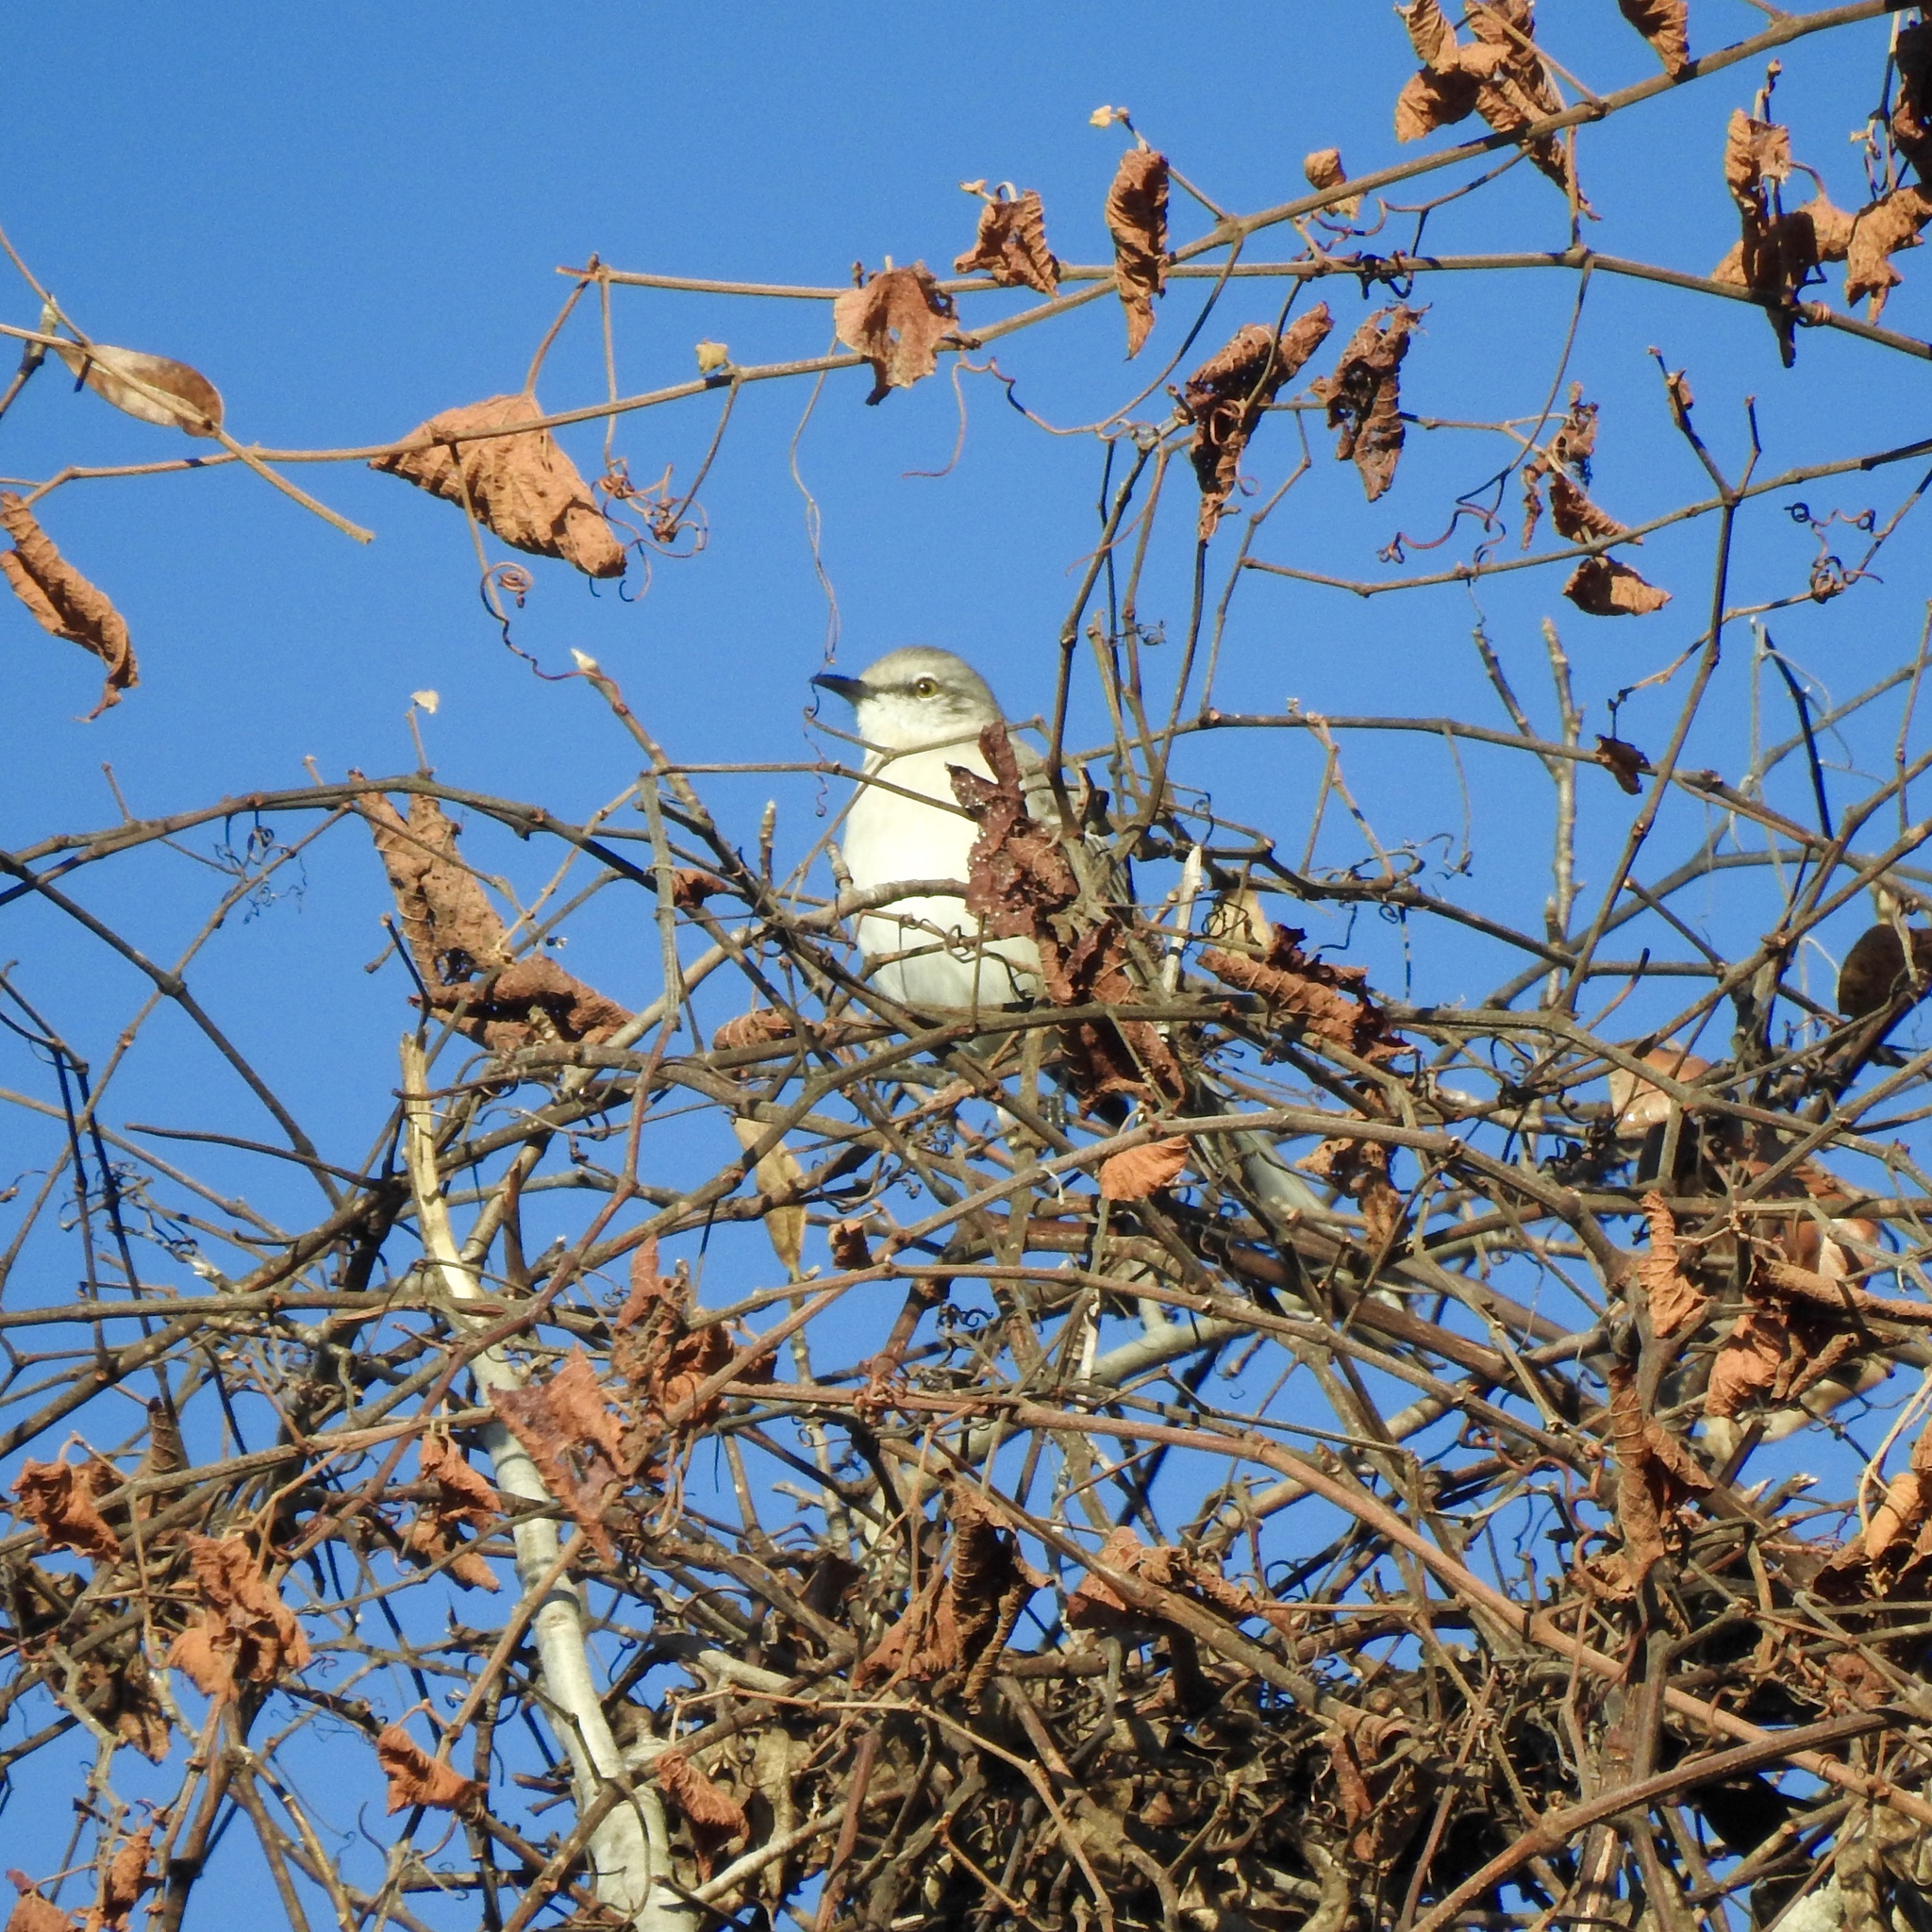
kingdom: Animalia
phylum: Chordata
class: Aves
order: Passeriformes
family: Mimidae
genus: Mimus
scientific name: Mimus polyglottos
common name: Northern mockingbird
